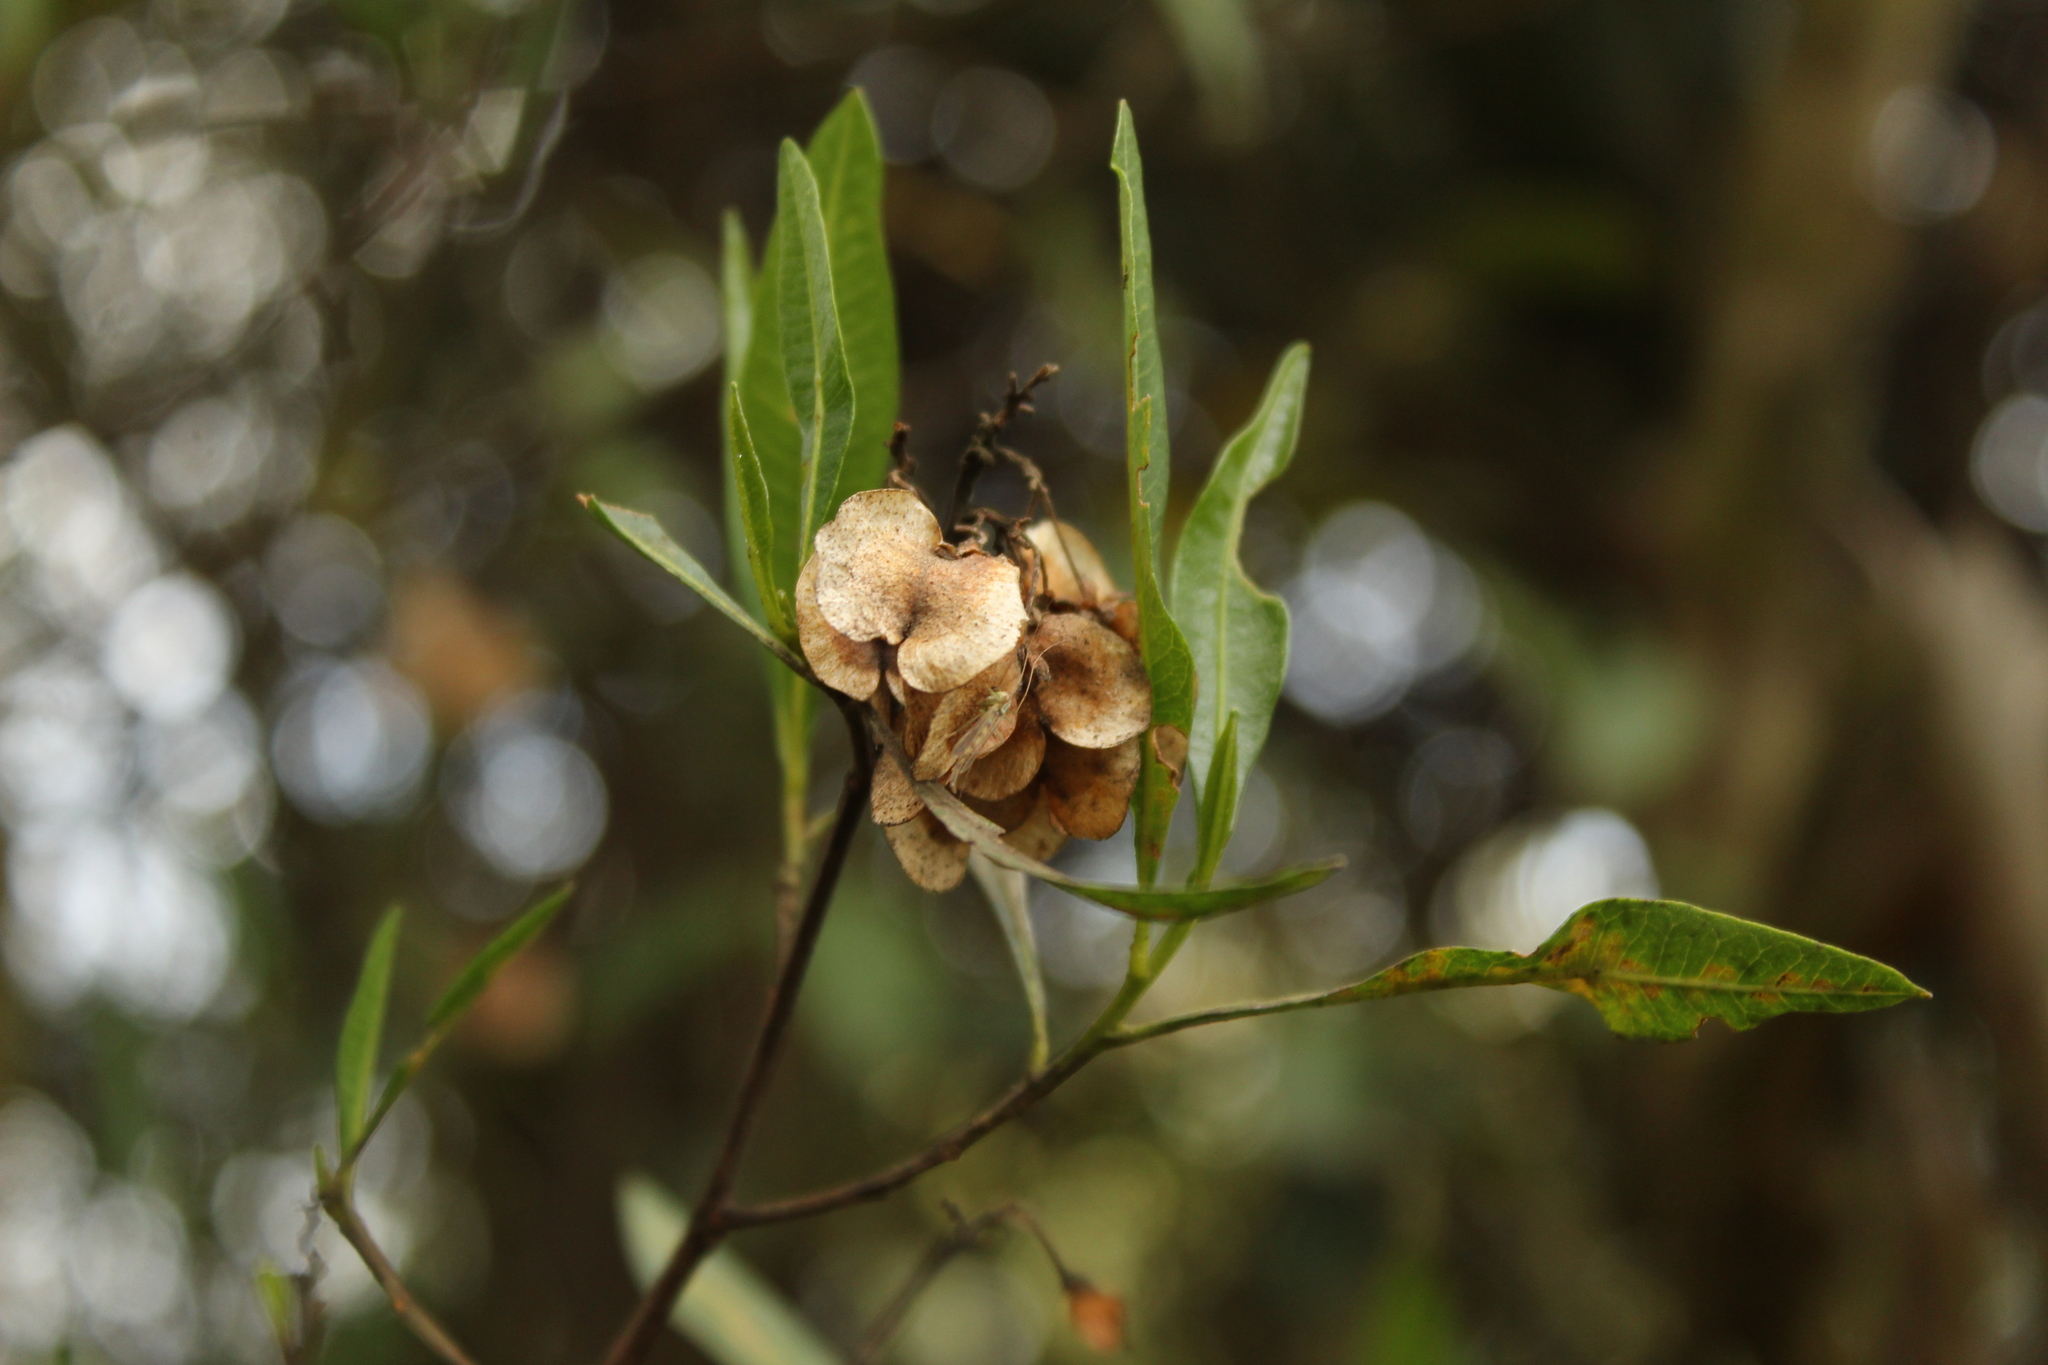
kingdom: Plantae
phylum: Tracheophyta
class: Magnoliopsida
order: Sapindales
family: Sapindaceae
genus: Dodonaea
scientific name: Dodonaea viscosa
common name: Hopbush
